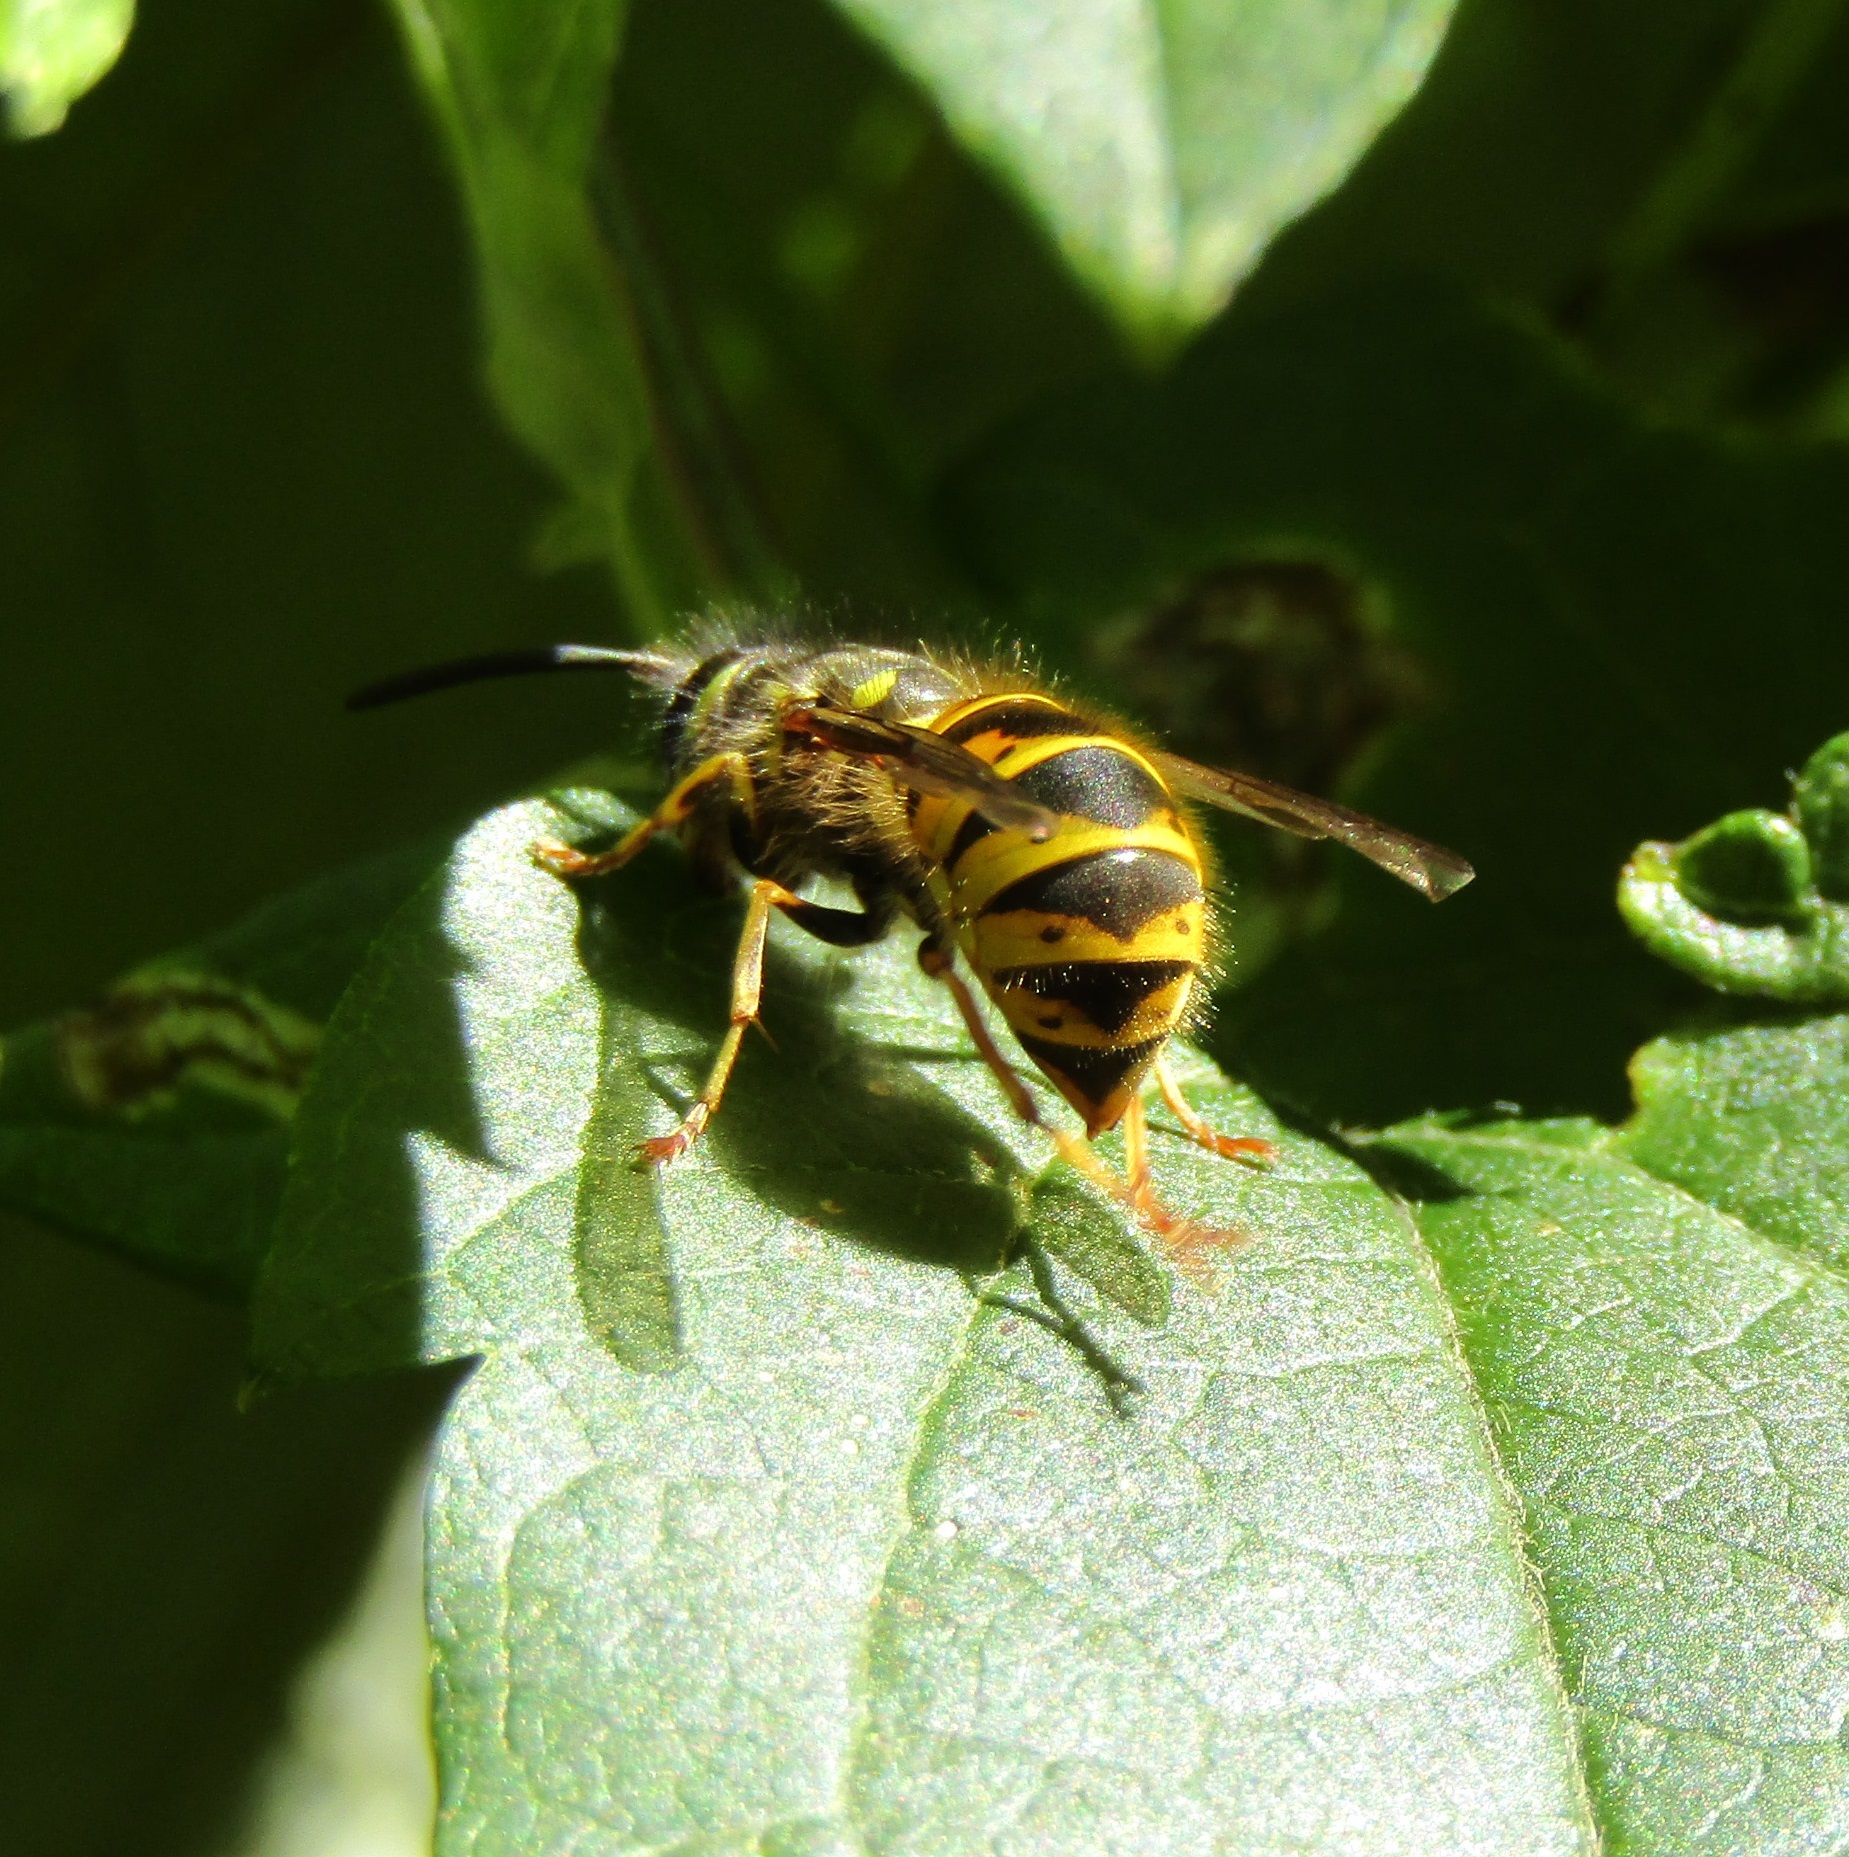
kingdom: Animalia
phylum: Arthropoda
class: Insecta
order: Hymenoptera
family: Vespidae
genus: Vespula
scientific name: Vespula vulgaris
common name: Common wasp
